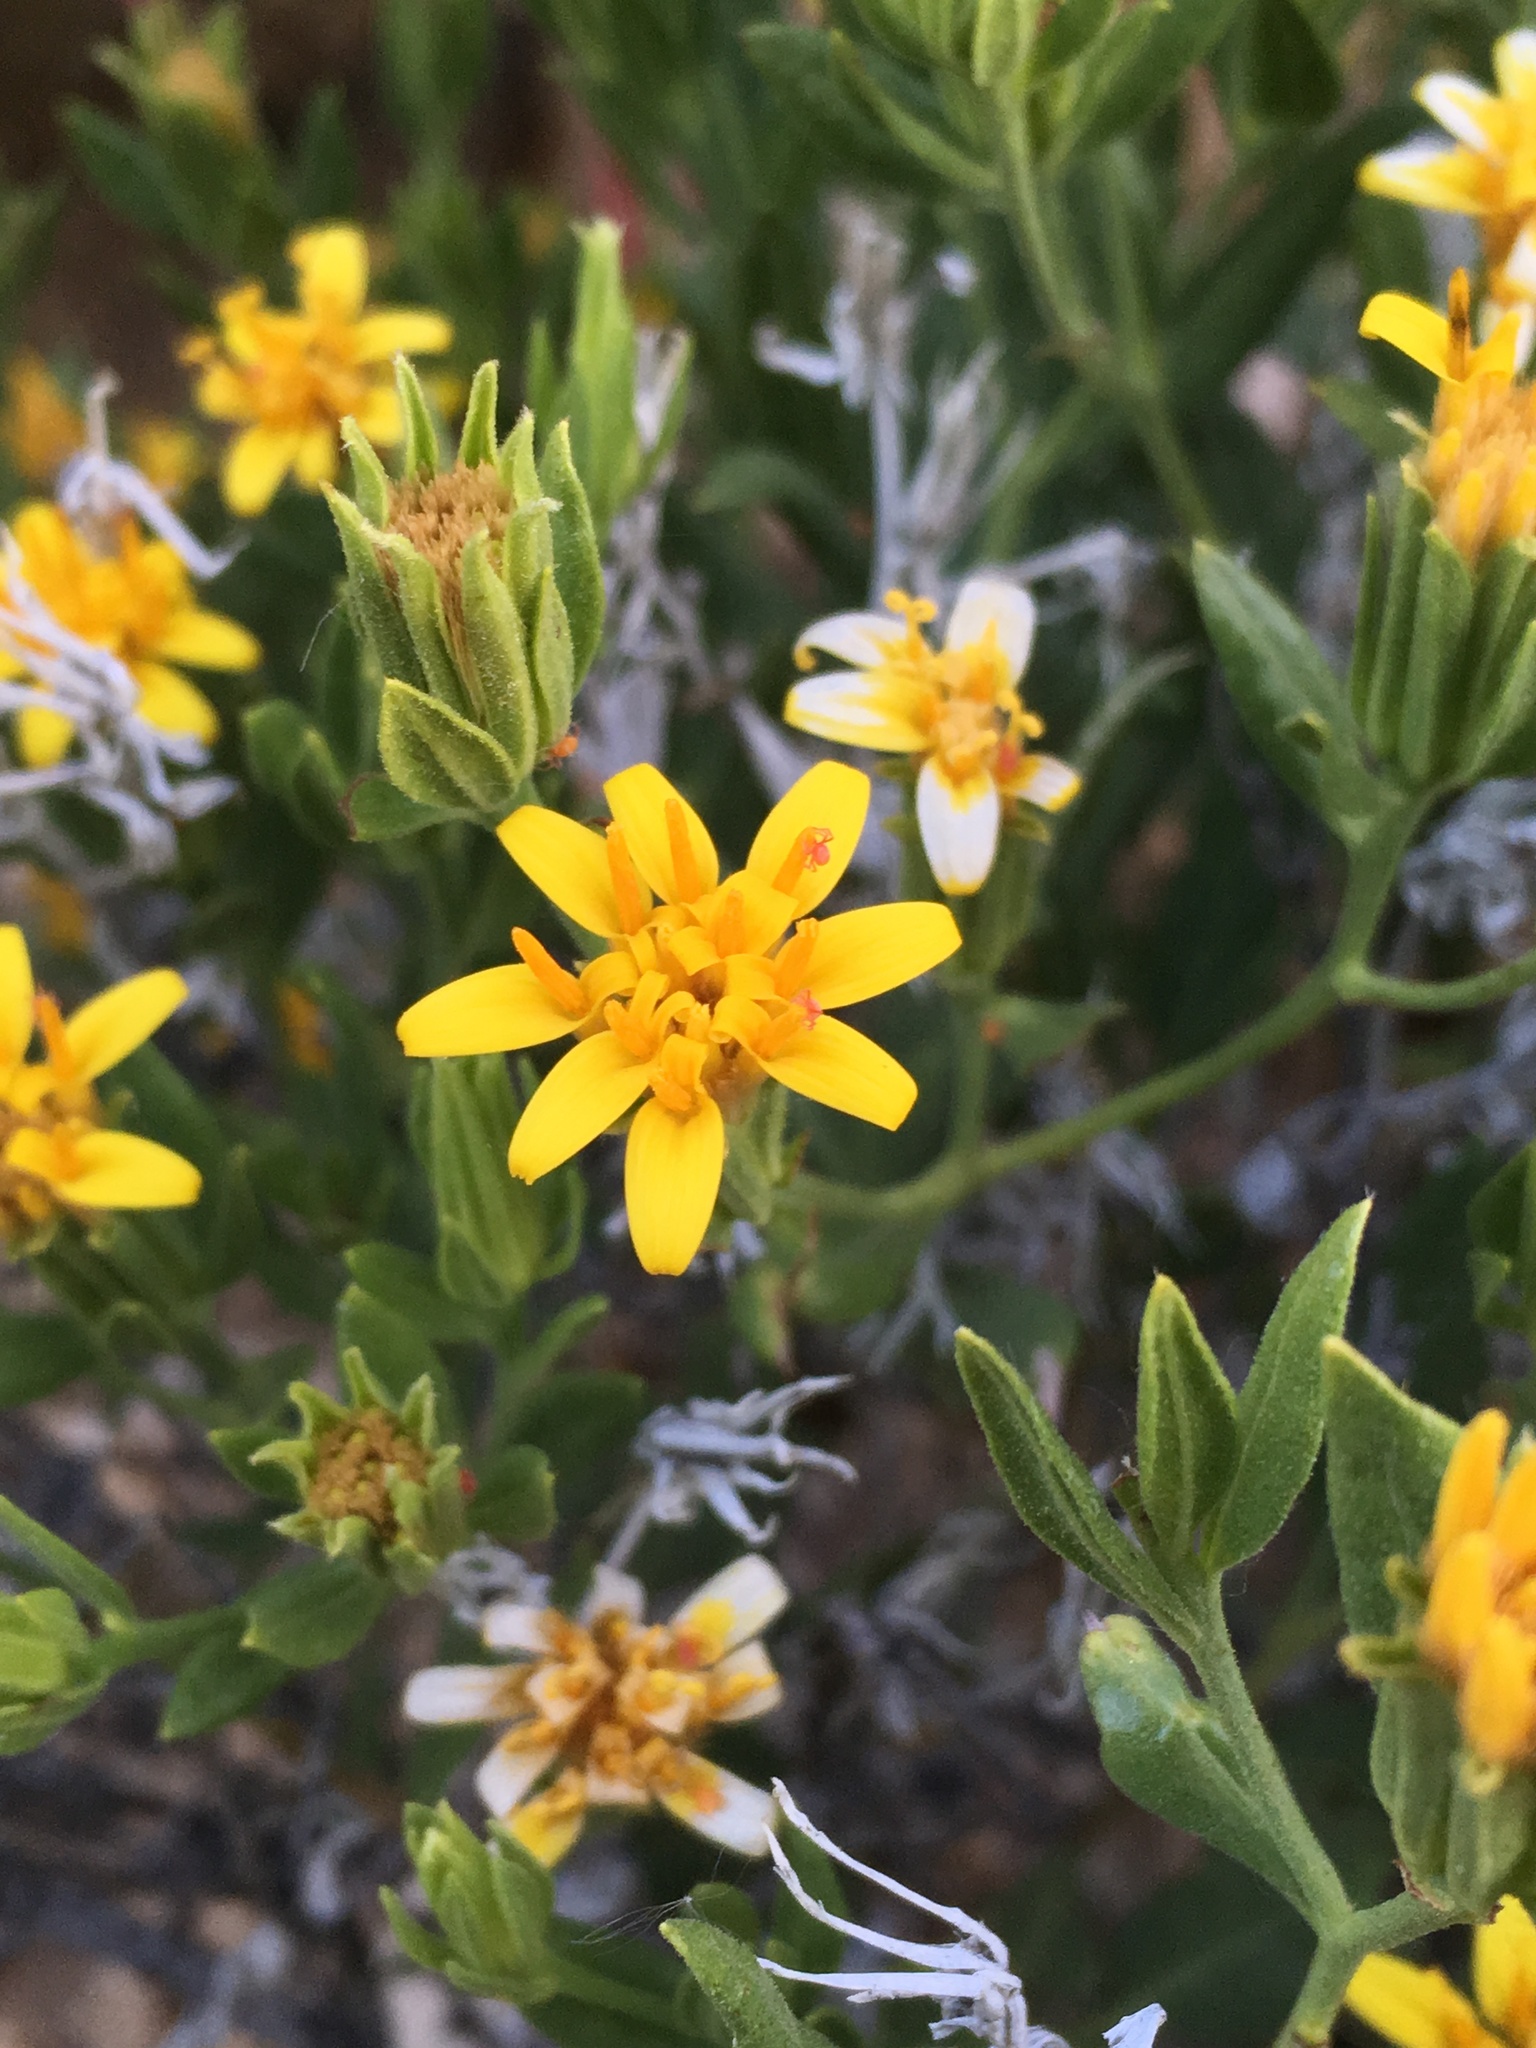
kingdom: Plantae
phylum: Tracheophyta
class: Magnoliopsida
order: Asterales
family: Asteraceae
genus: Trixis
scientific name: Trixis californica
